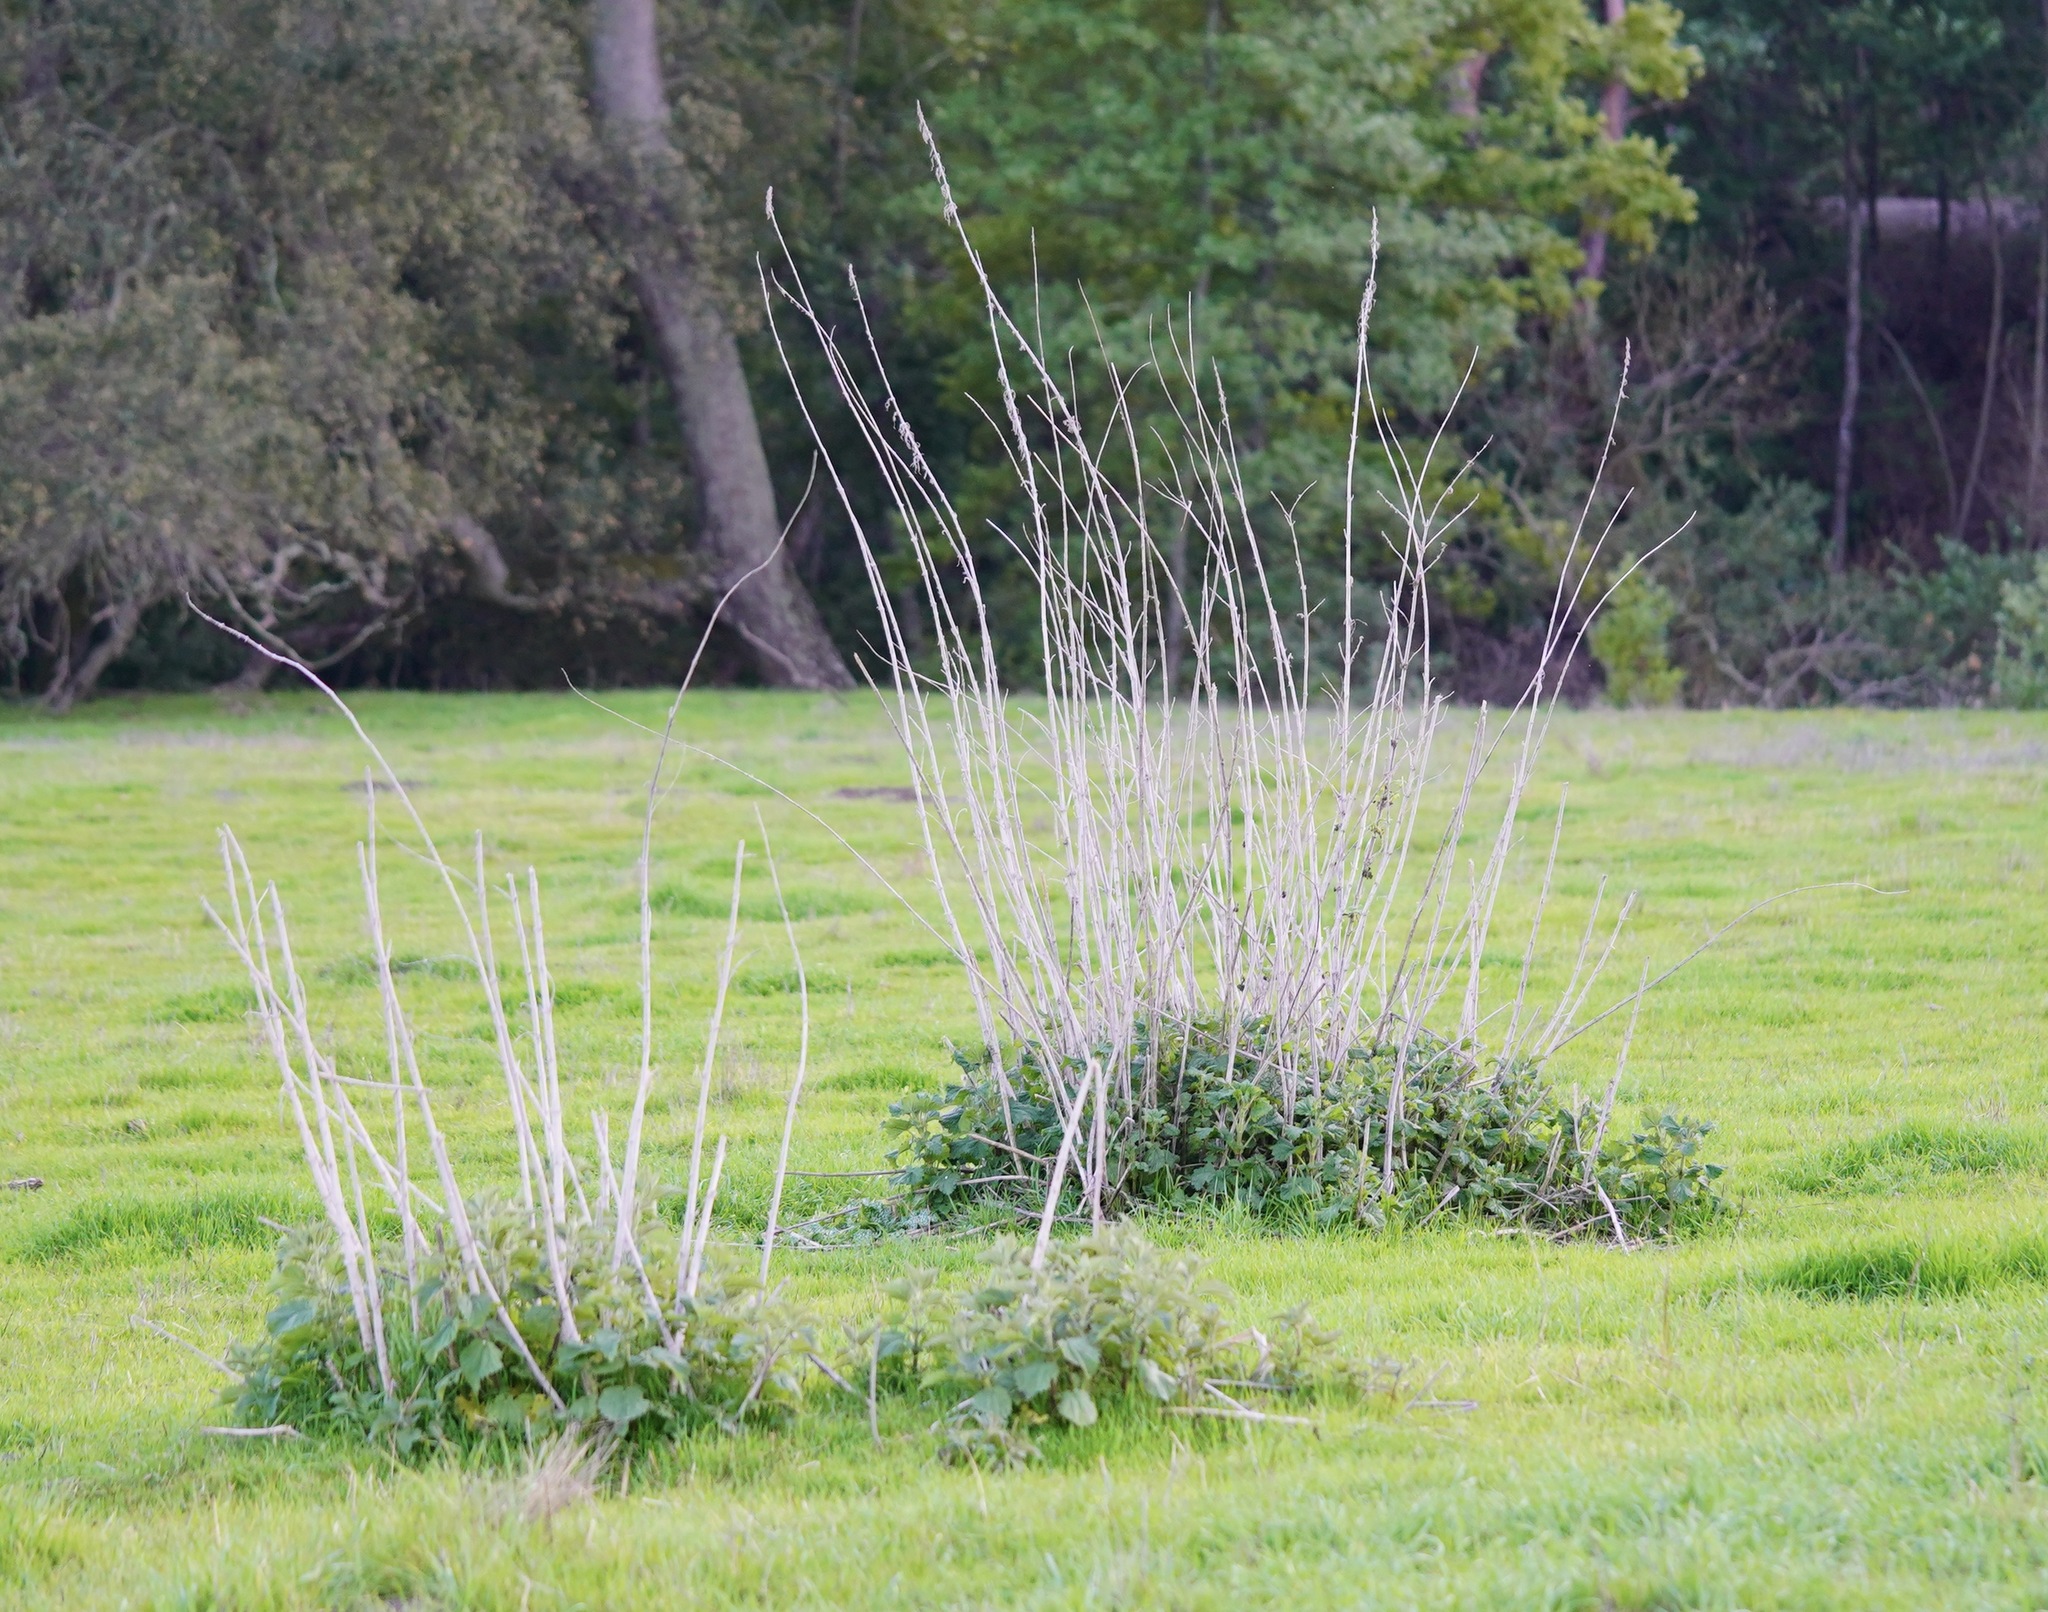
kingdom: Plantae
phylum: Tracheophyta
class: Magnoliopsida
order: Rosales
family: Urticaceae
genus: Urtica
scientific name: Urtica dioica
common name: Common nettle
